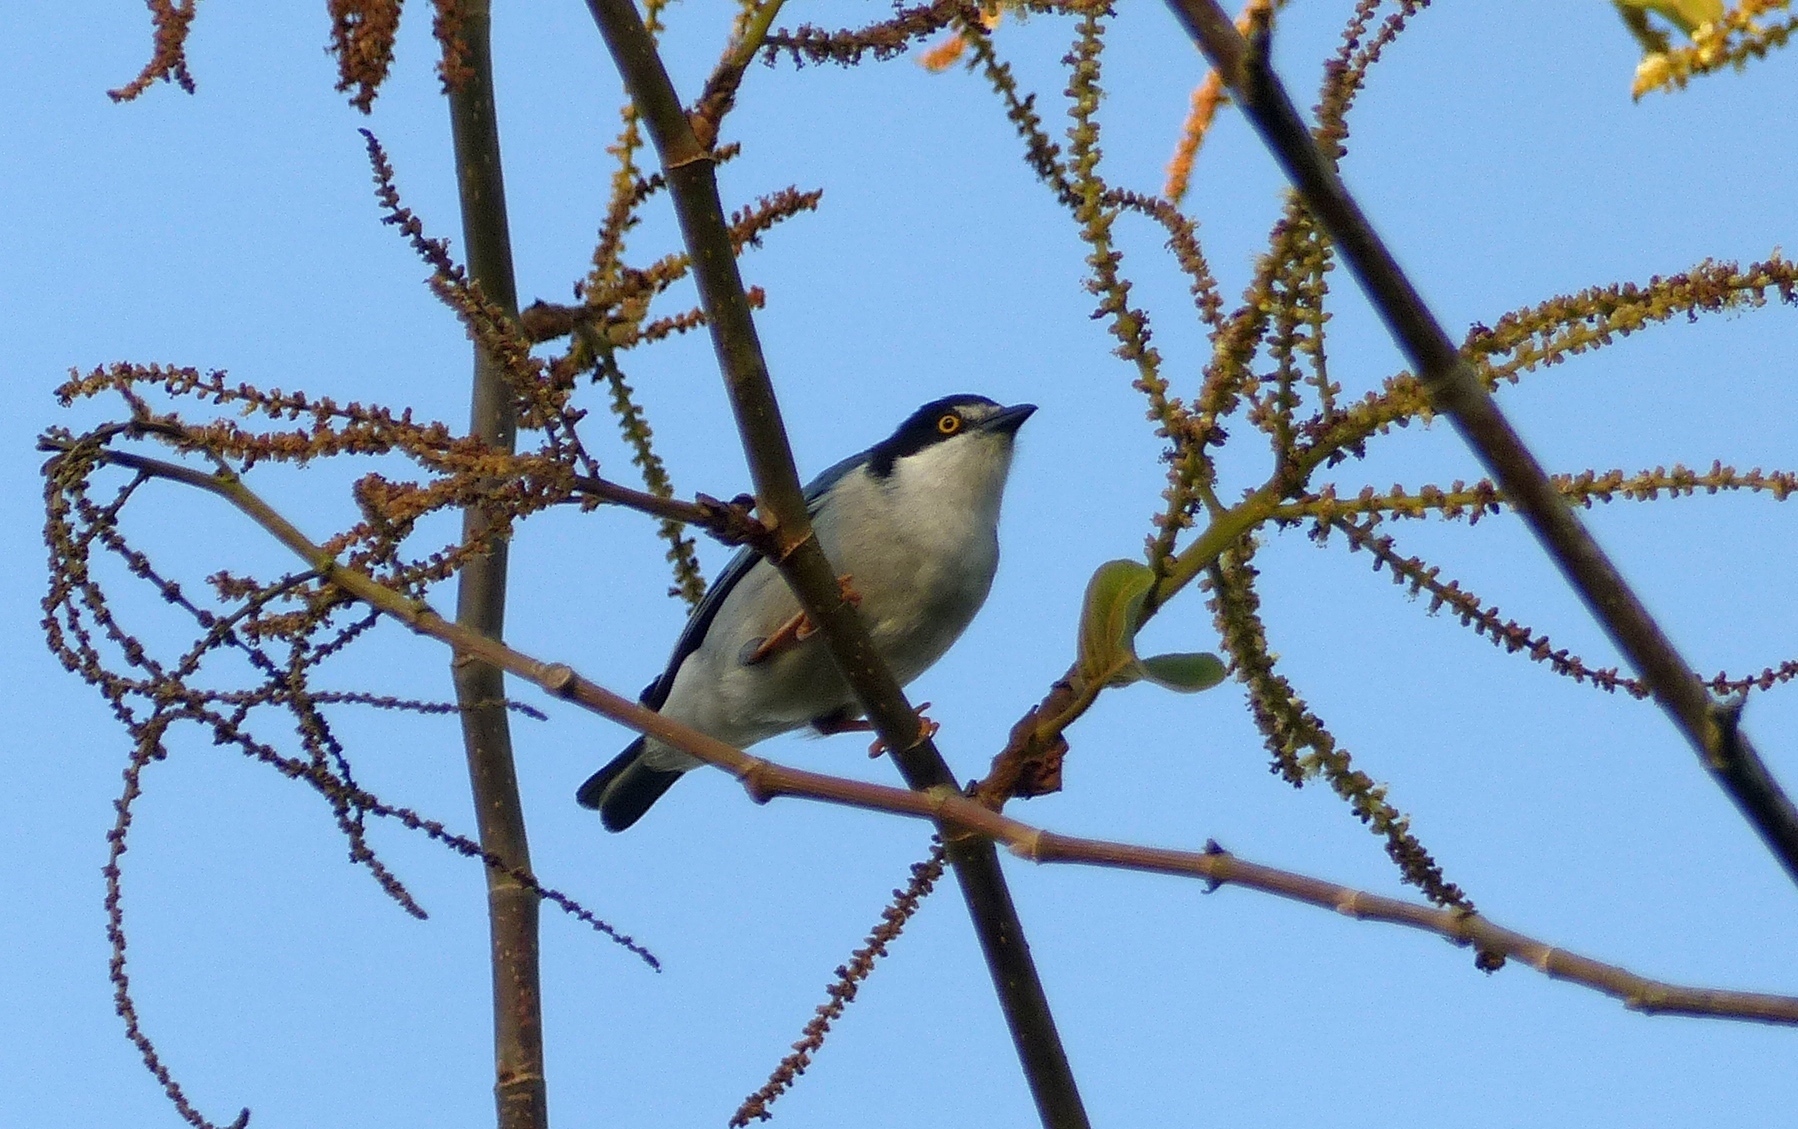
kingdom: Animalia
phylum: Chordata
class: Aves
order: Passeriformes
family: Thraupidae
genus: Nemosia
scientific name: Nemosia pileata
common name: Hooded tanager
